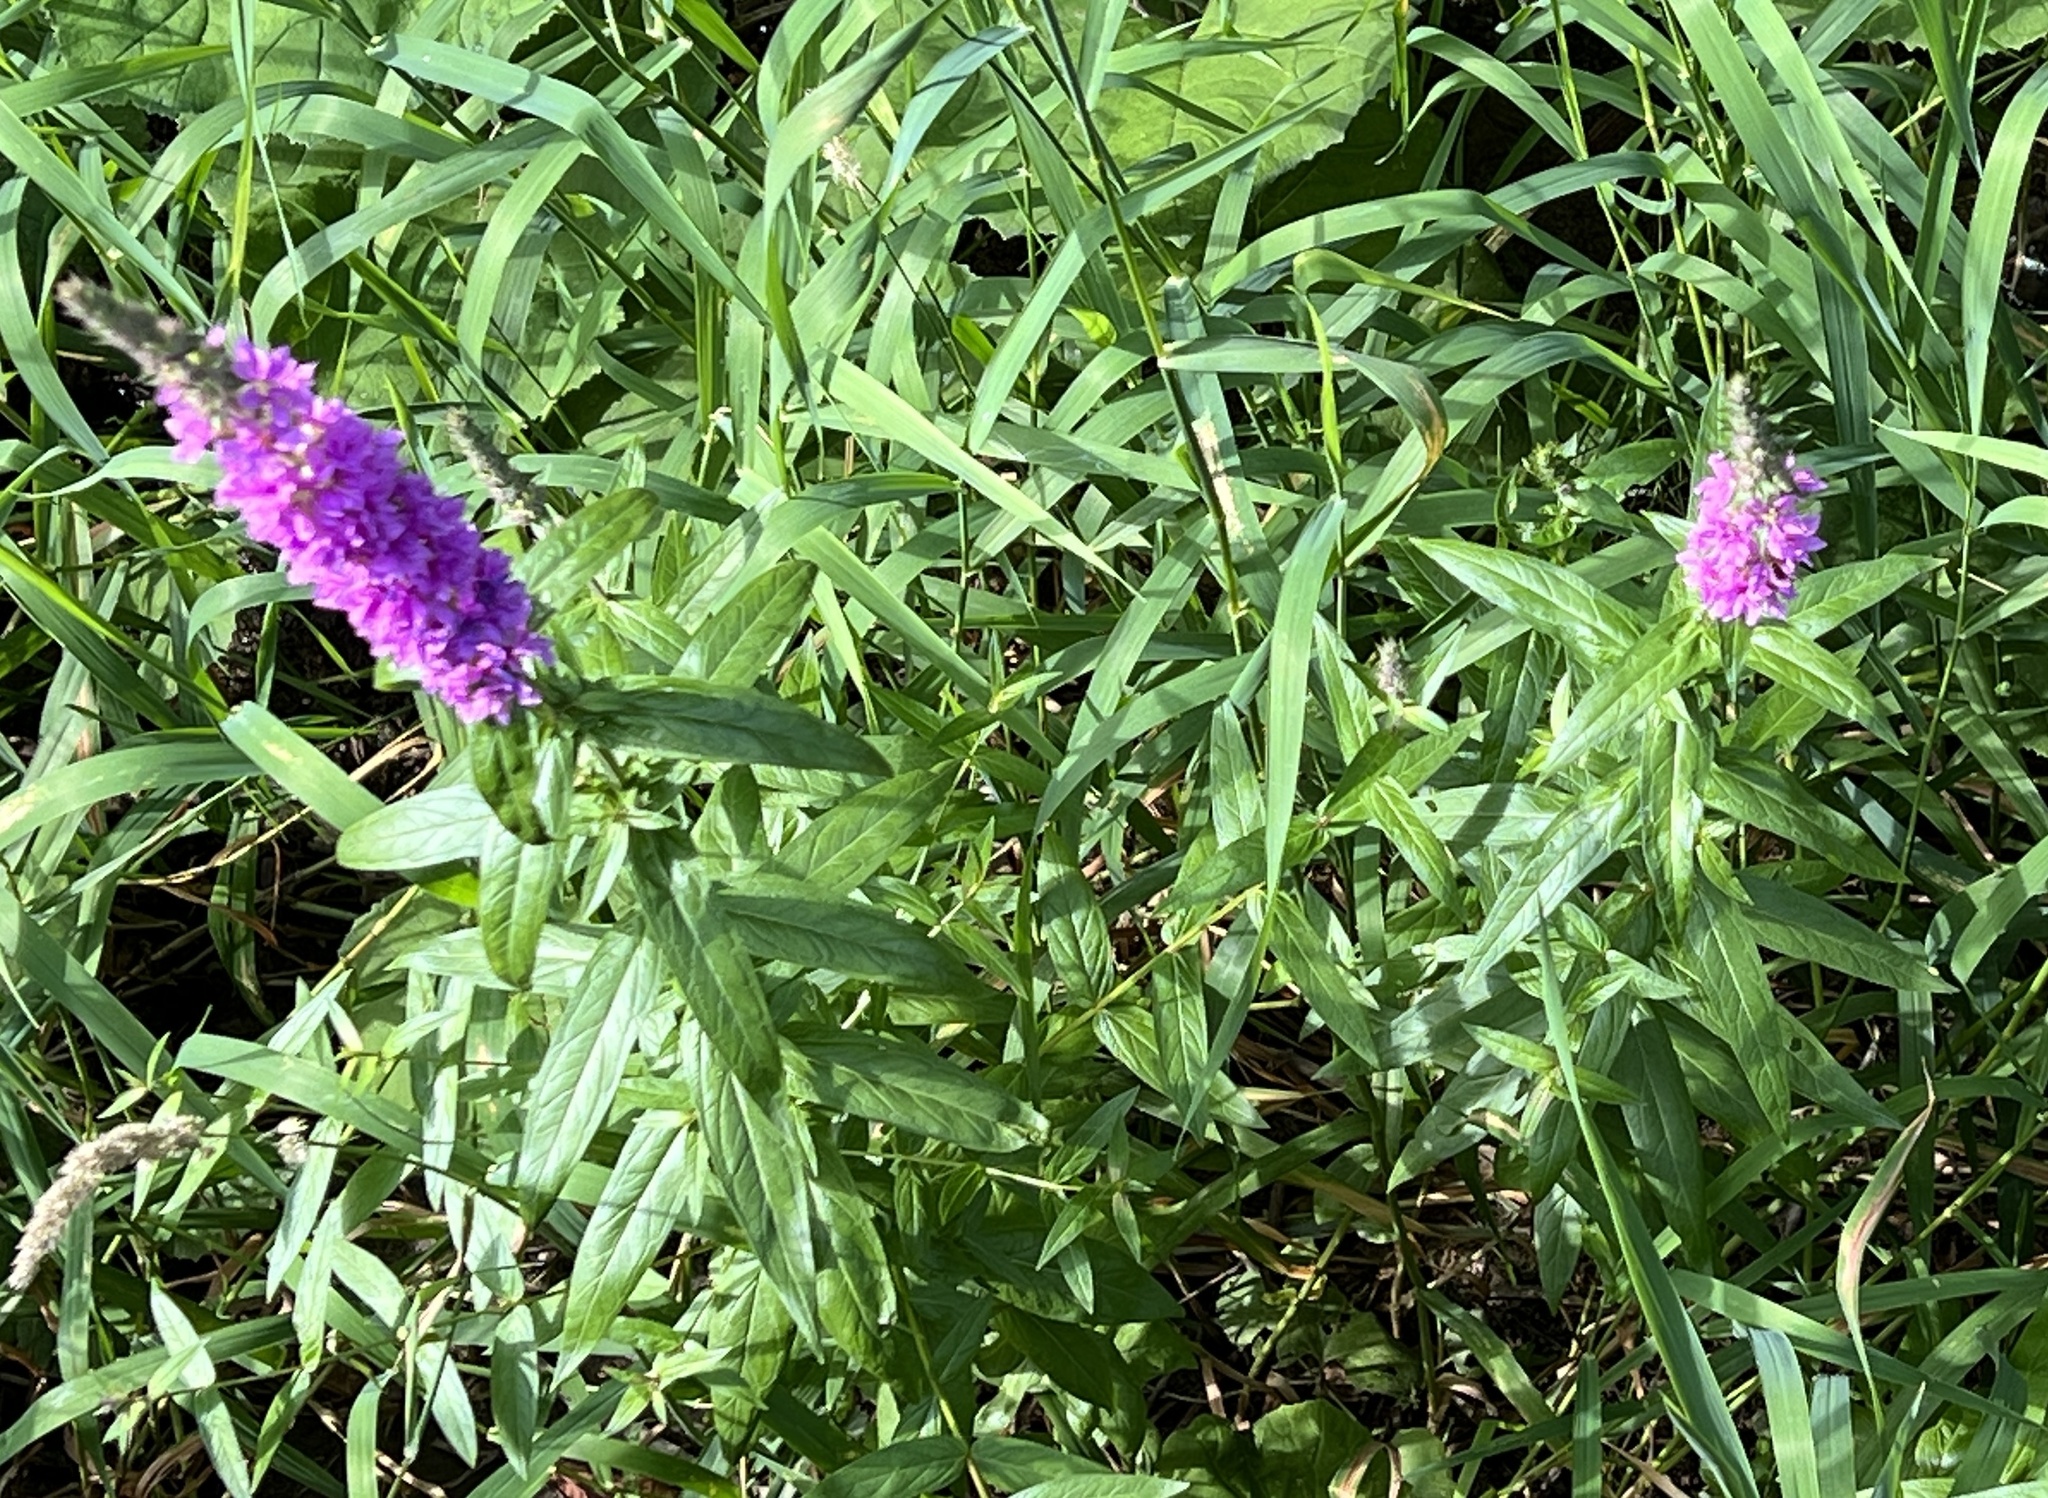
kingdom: Plantae
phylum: Tracheophyta
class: Magnoliopsida
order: Myrtales
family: Lythraceae
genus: Lythrum
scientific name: Lythrum salicaria
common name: Purple loosestrife
